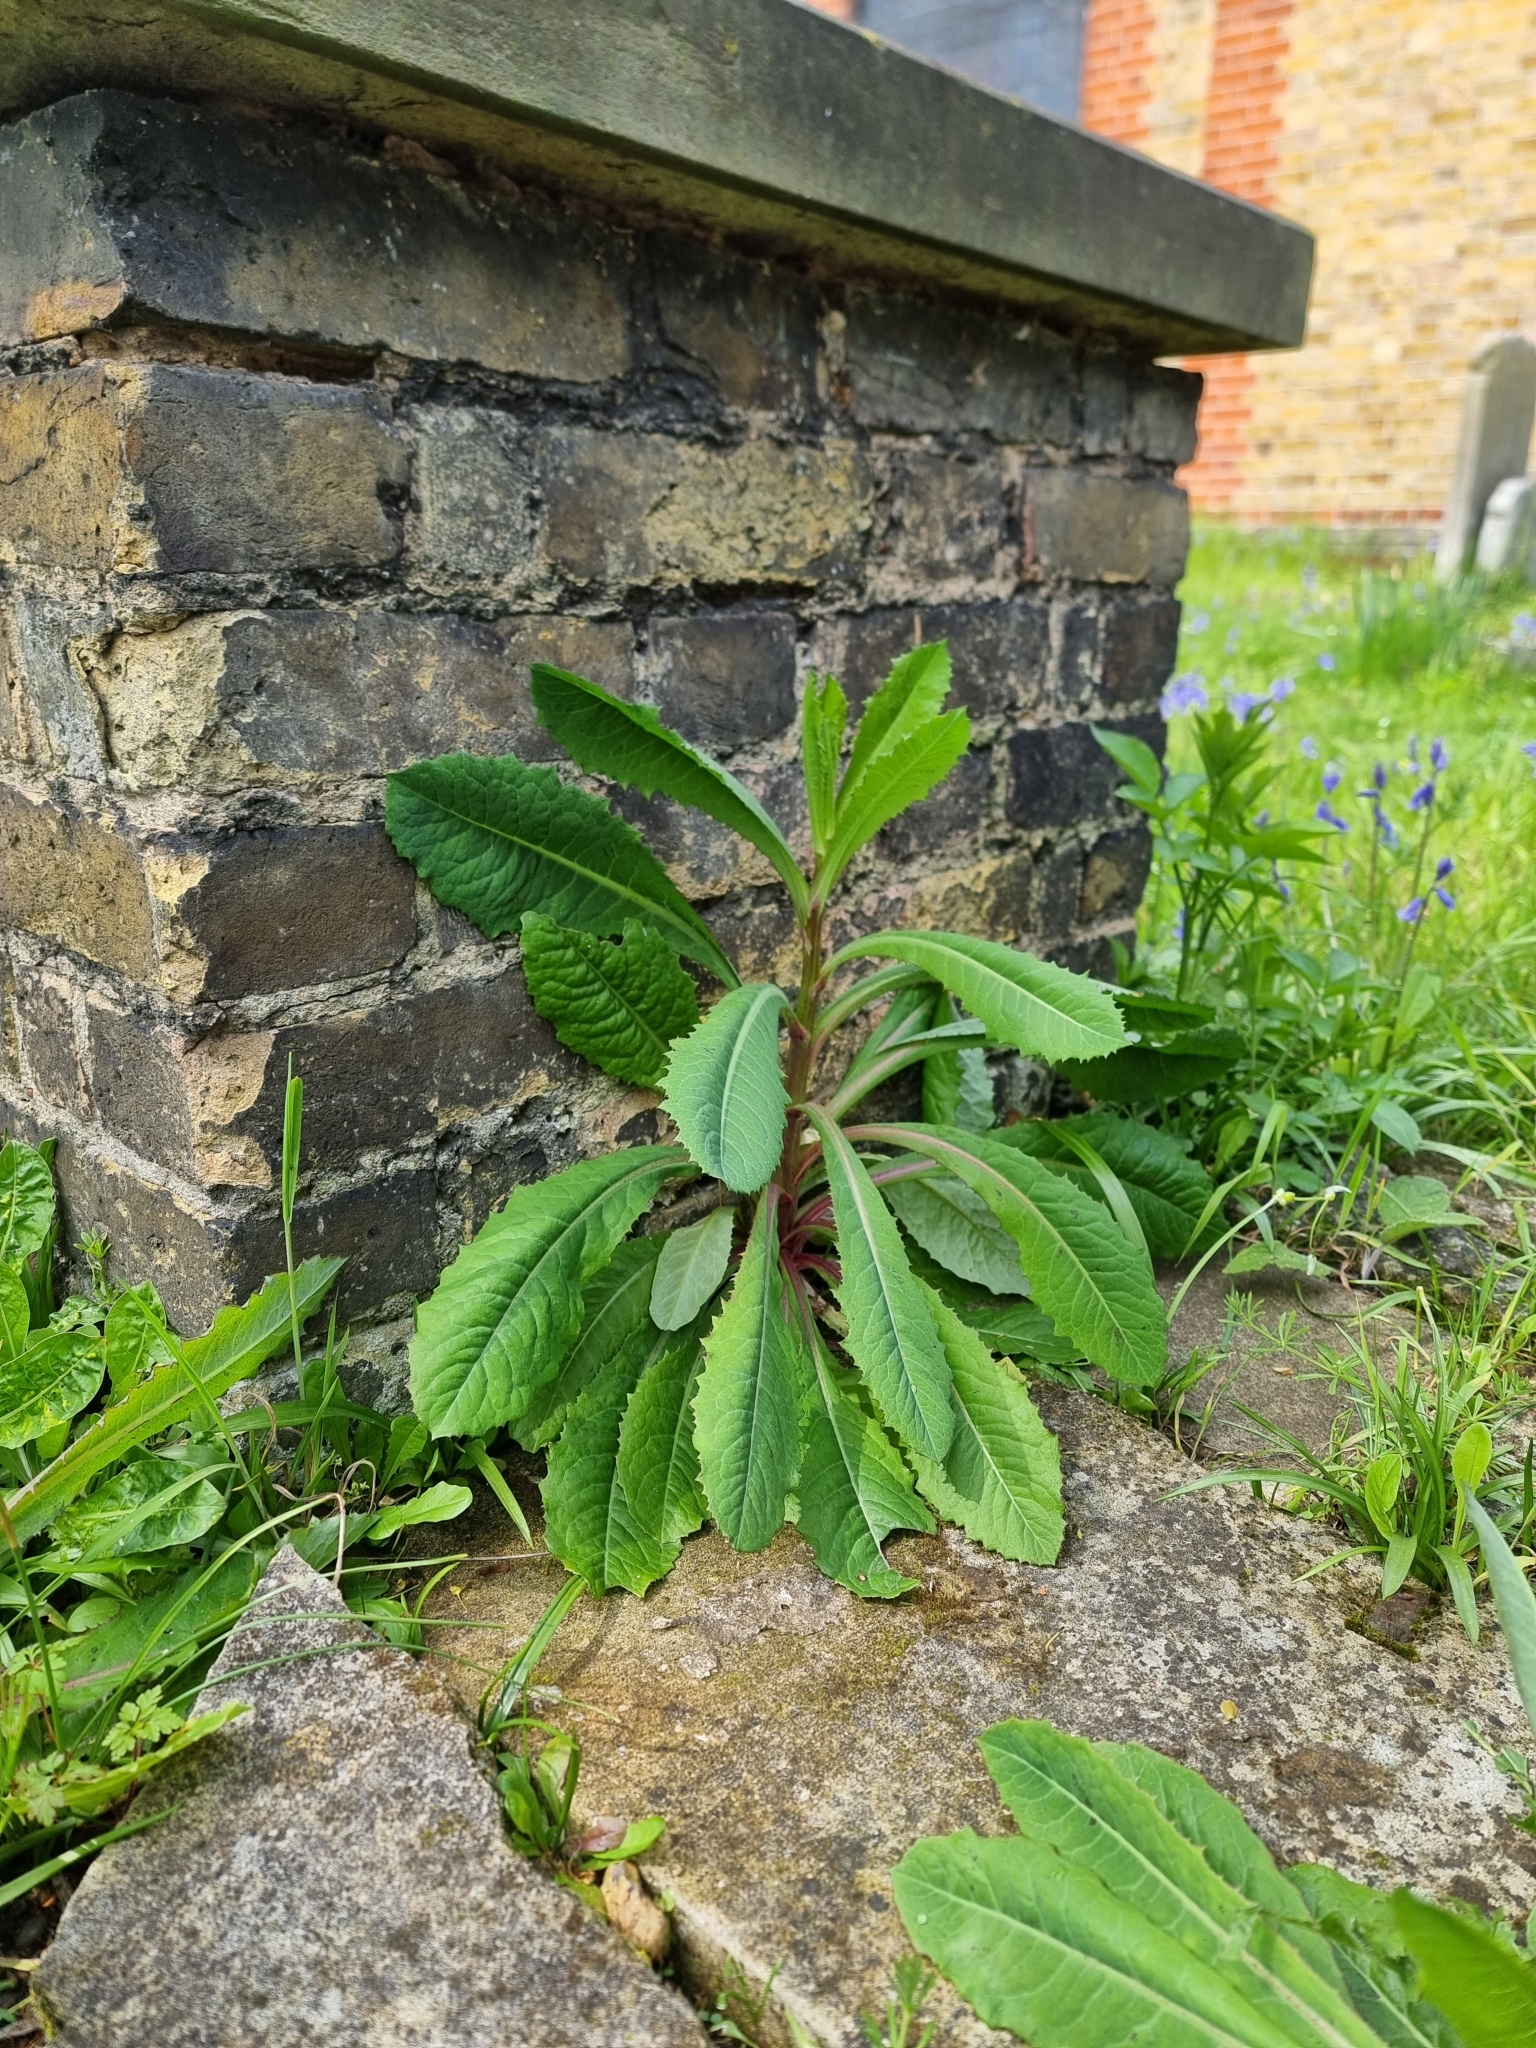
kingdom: Plantae
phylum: Tracheophyta
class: Magnoliopsida
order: Asterales
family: Asteraceae
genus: Lactuca
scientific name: Lactuca virosa
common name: Great lettuce
